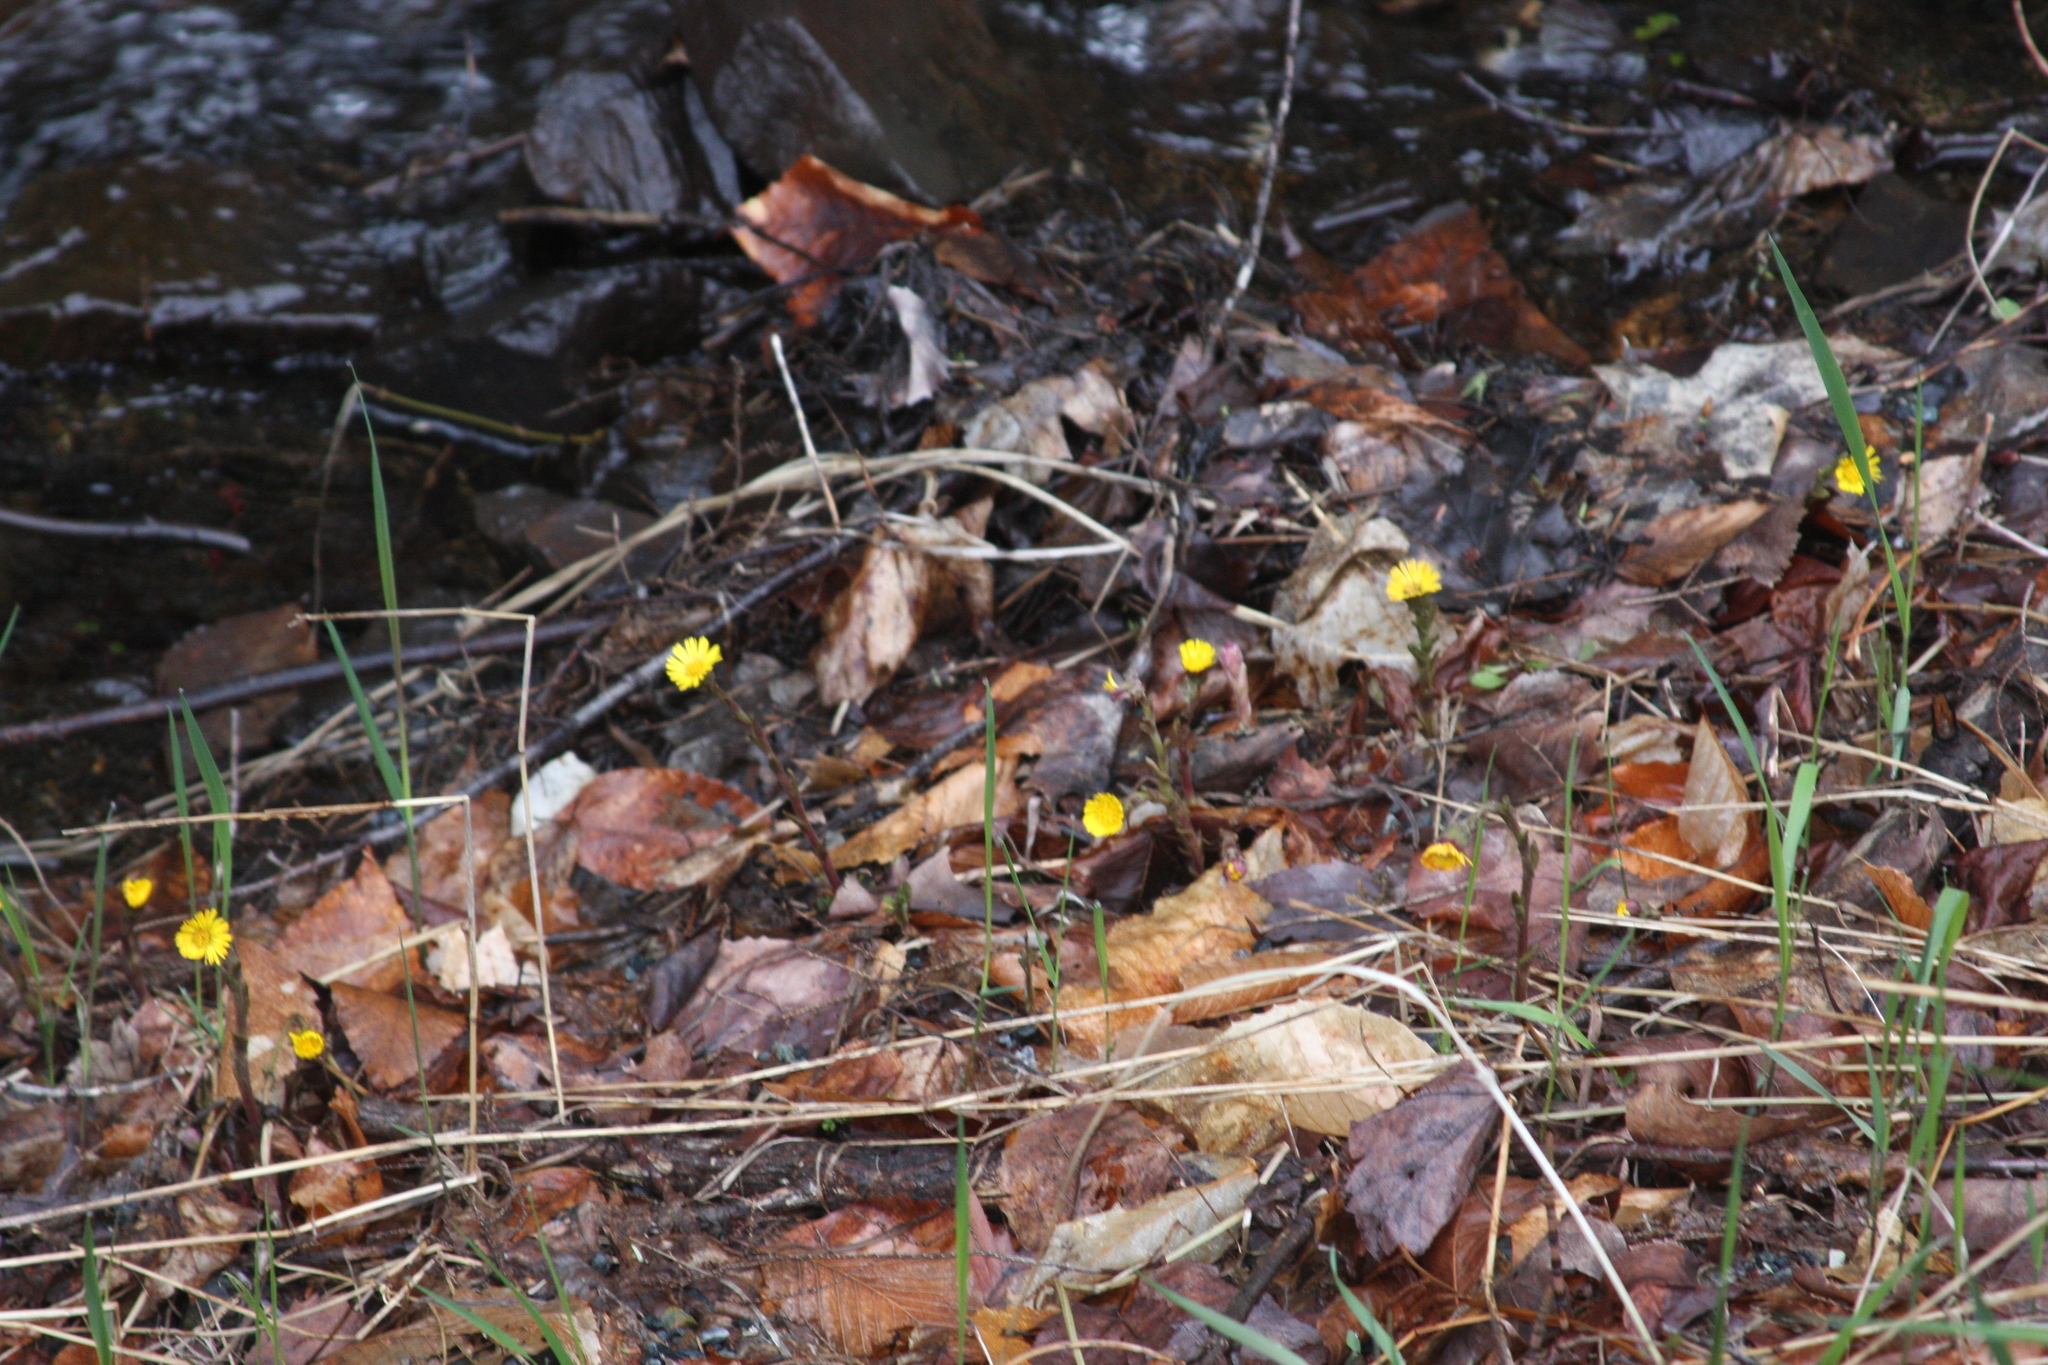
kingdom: Plantae
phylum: Tracheophyta
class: Magnoliopsida
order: Asterales
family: Asteraceae
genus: Tussilago
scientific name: Tussilago farfara
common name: Coltsfoot
